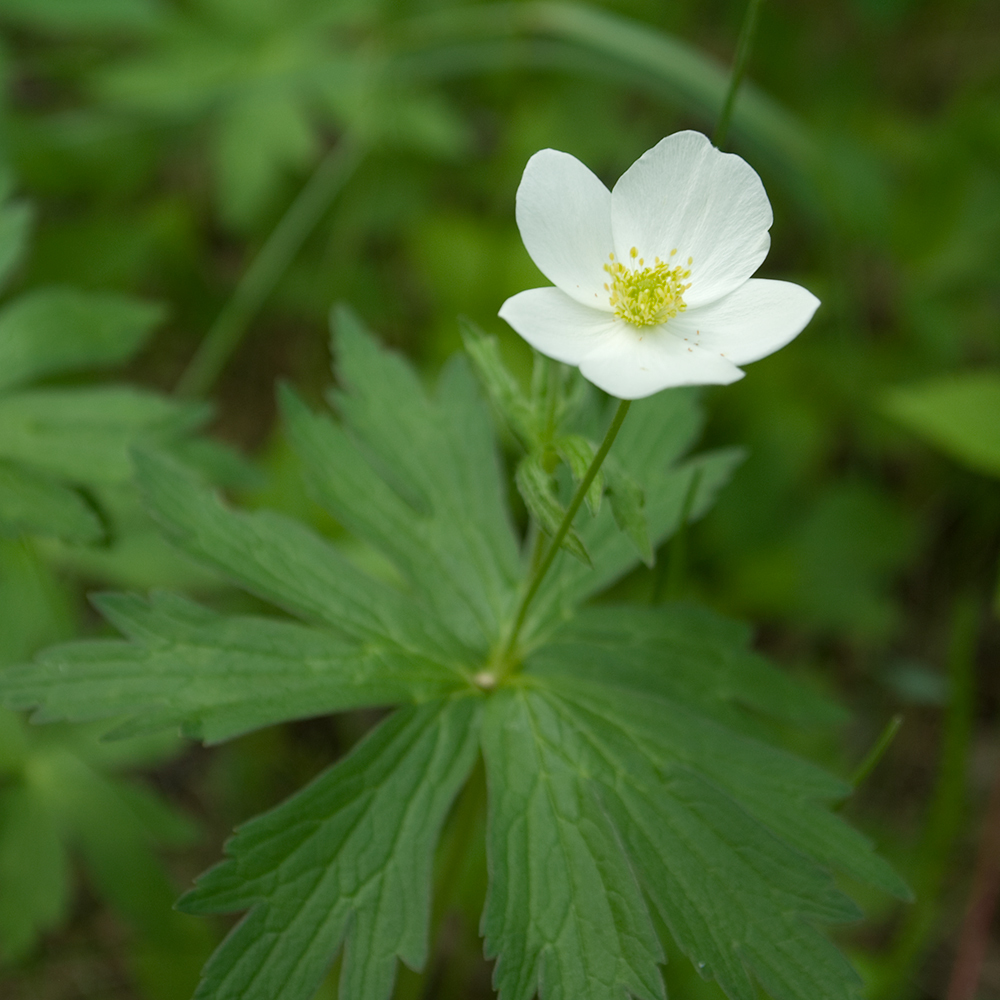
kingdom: Plantae
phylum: Tracheophyta
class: Magnoliopsida
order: Ranunculales
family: Ranunculaceae
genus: Anemonastrum
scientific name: Anemonastrum canadense
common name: Canada anemone
